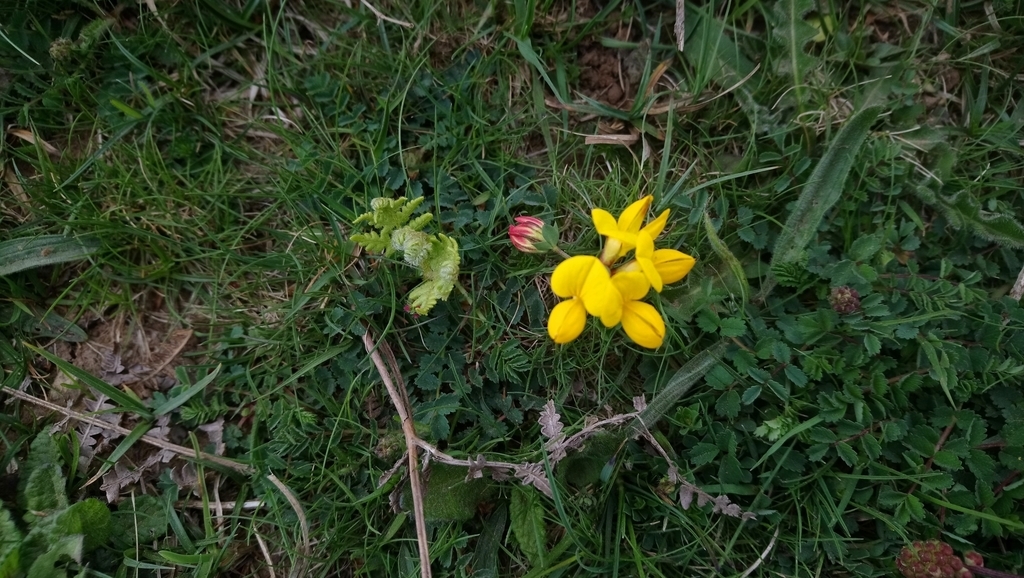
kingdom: Plantae
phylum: Tracheophyta
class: Magnoliopsida
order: Fabales
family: Fabaceae
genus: Lotus
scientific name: Lotus corniculatus
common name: Common bird's-foot-trefoil
